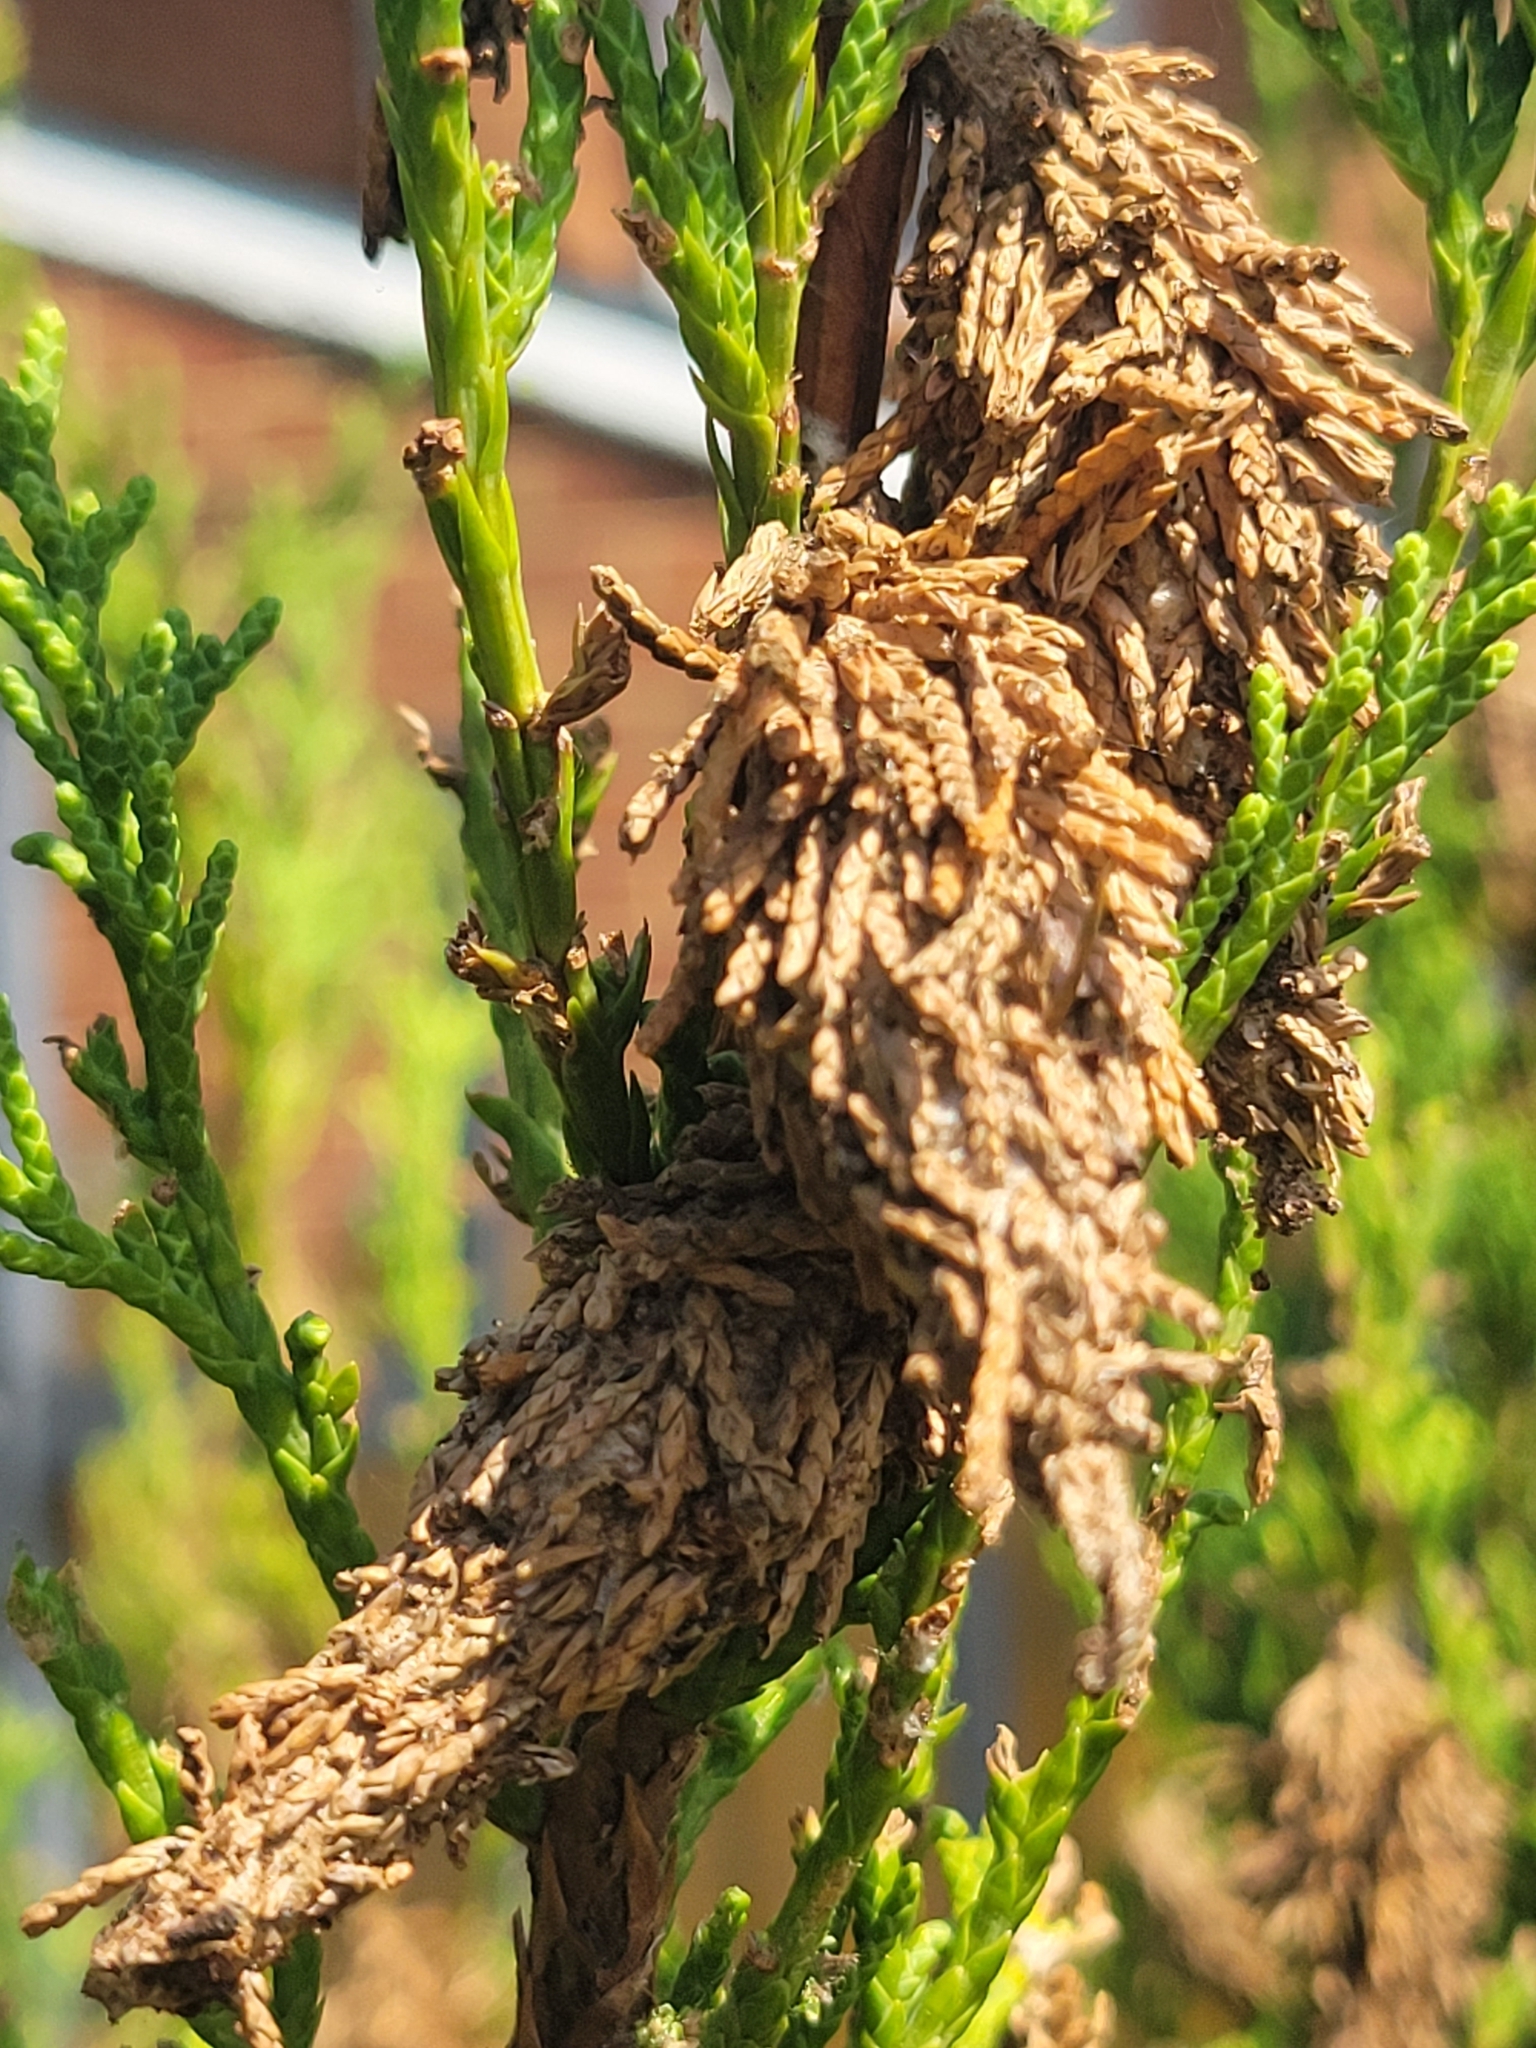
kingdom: Animalia
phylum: Arthropoda
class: Insecta
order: Lepidoptera
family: Psychidae
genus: Thyridopteryx
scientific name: Thyridopteryx ephemeraeformis
